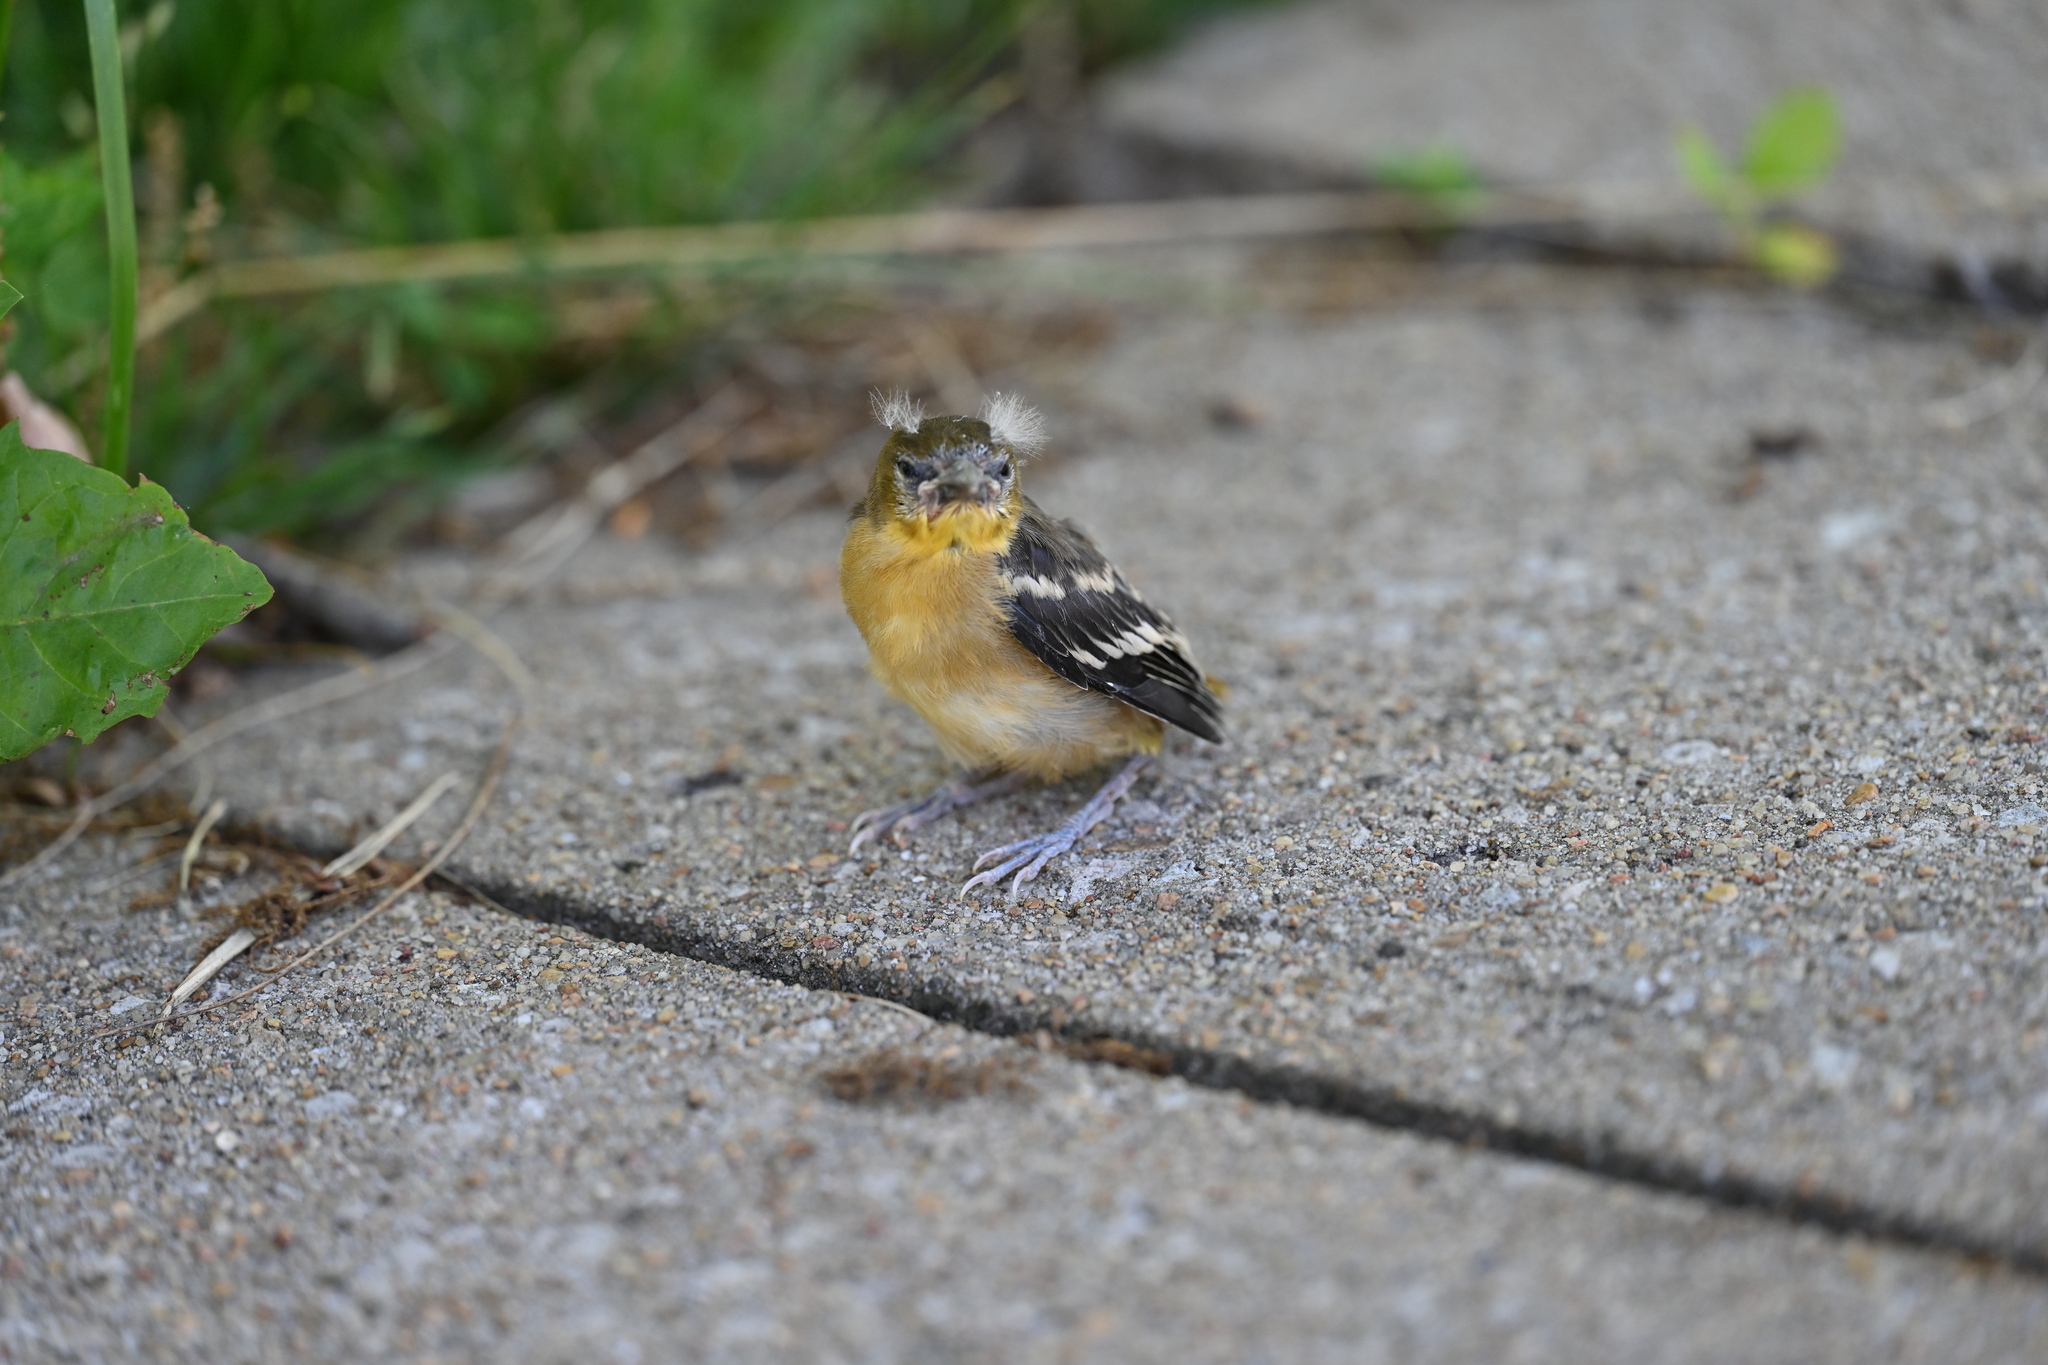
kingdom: Animalia
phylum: Chordata
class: Aves
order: Passeriformes
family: Icteridae
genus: Icterus
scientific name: Icterus galbula
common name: Baltimore oriole
